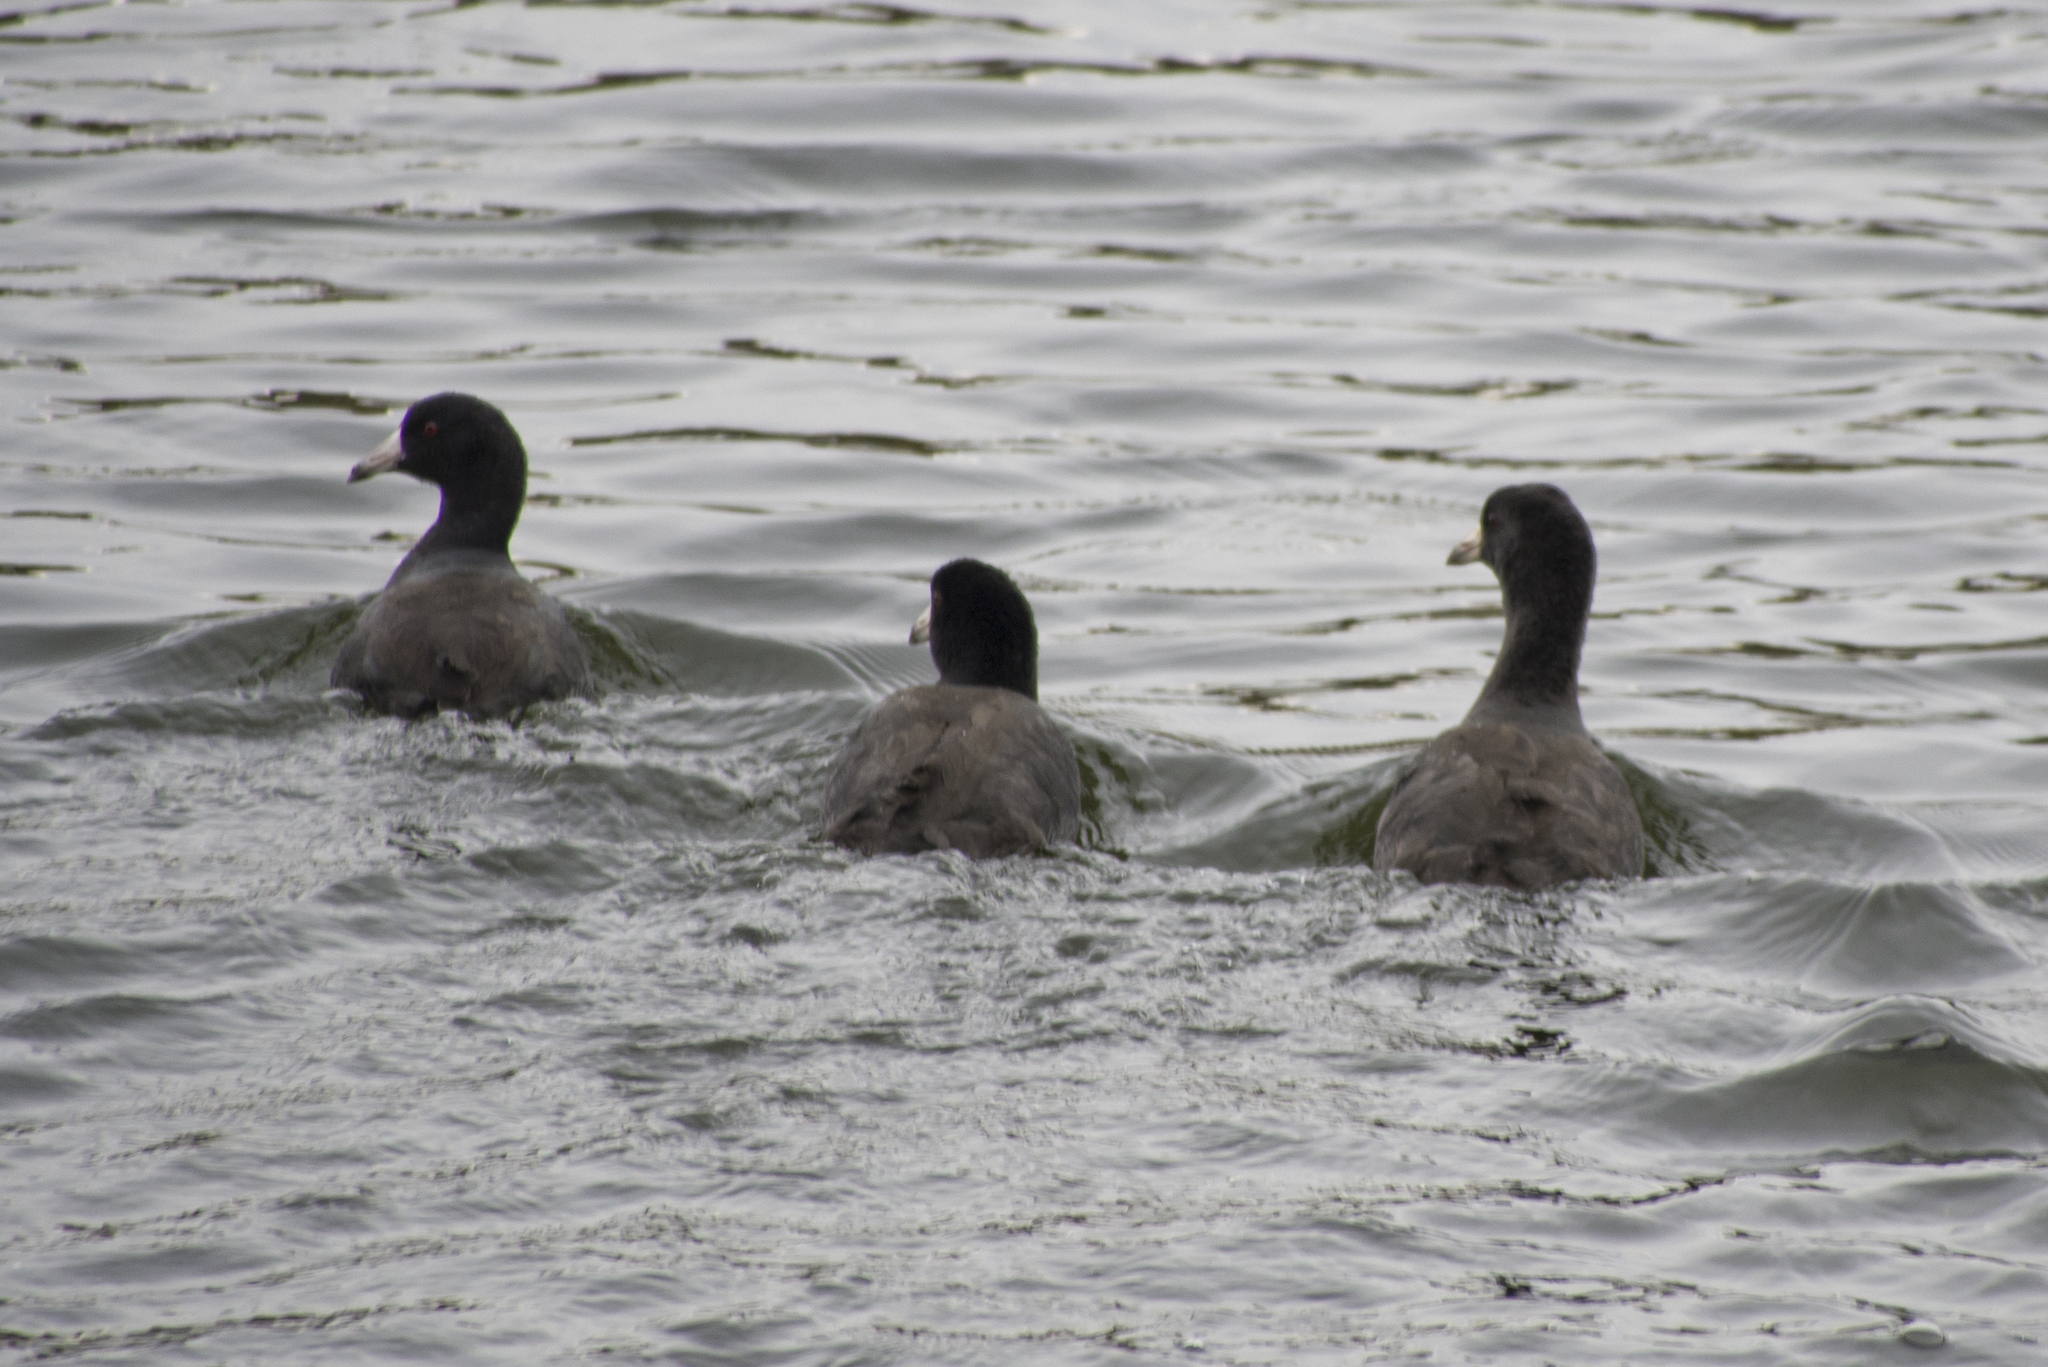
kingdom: Animalia
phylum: Chordata
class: Aves
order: Gruiformes
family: Rallidae
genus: Fulica
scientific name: Fulica americana
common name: American coot
